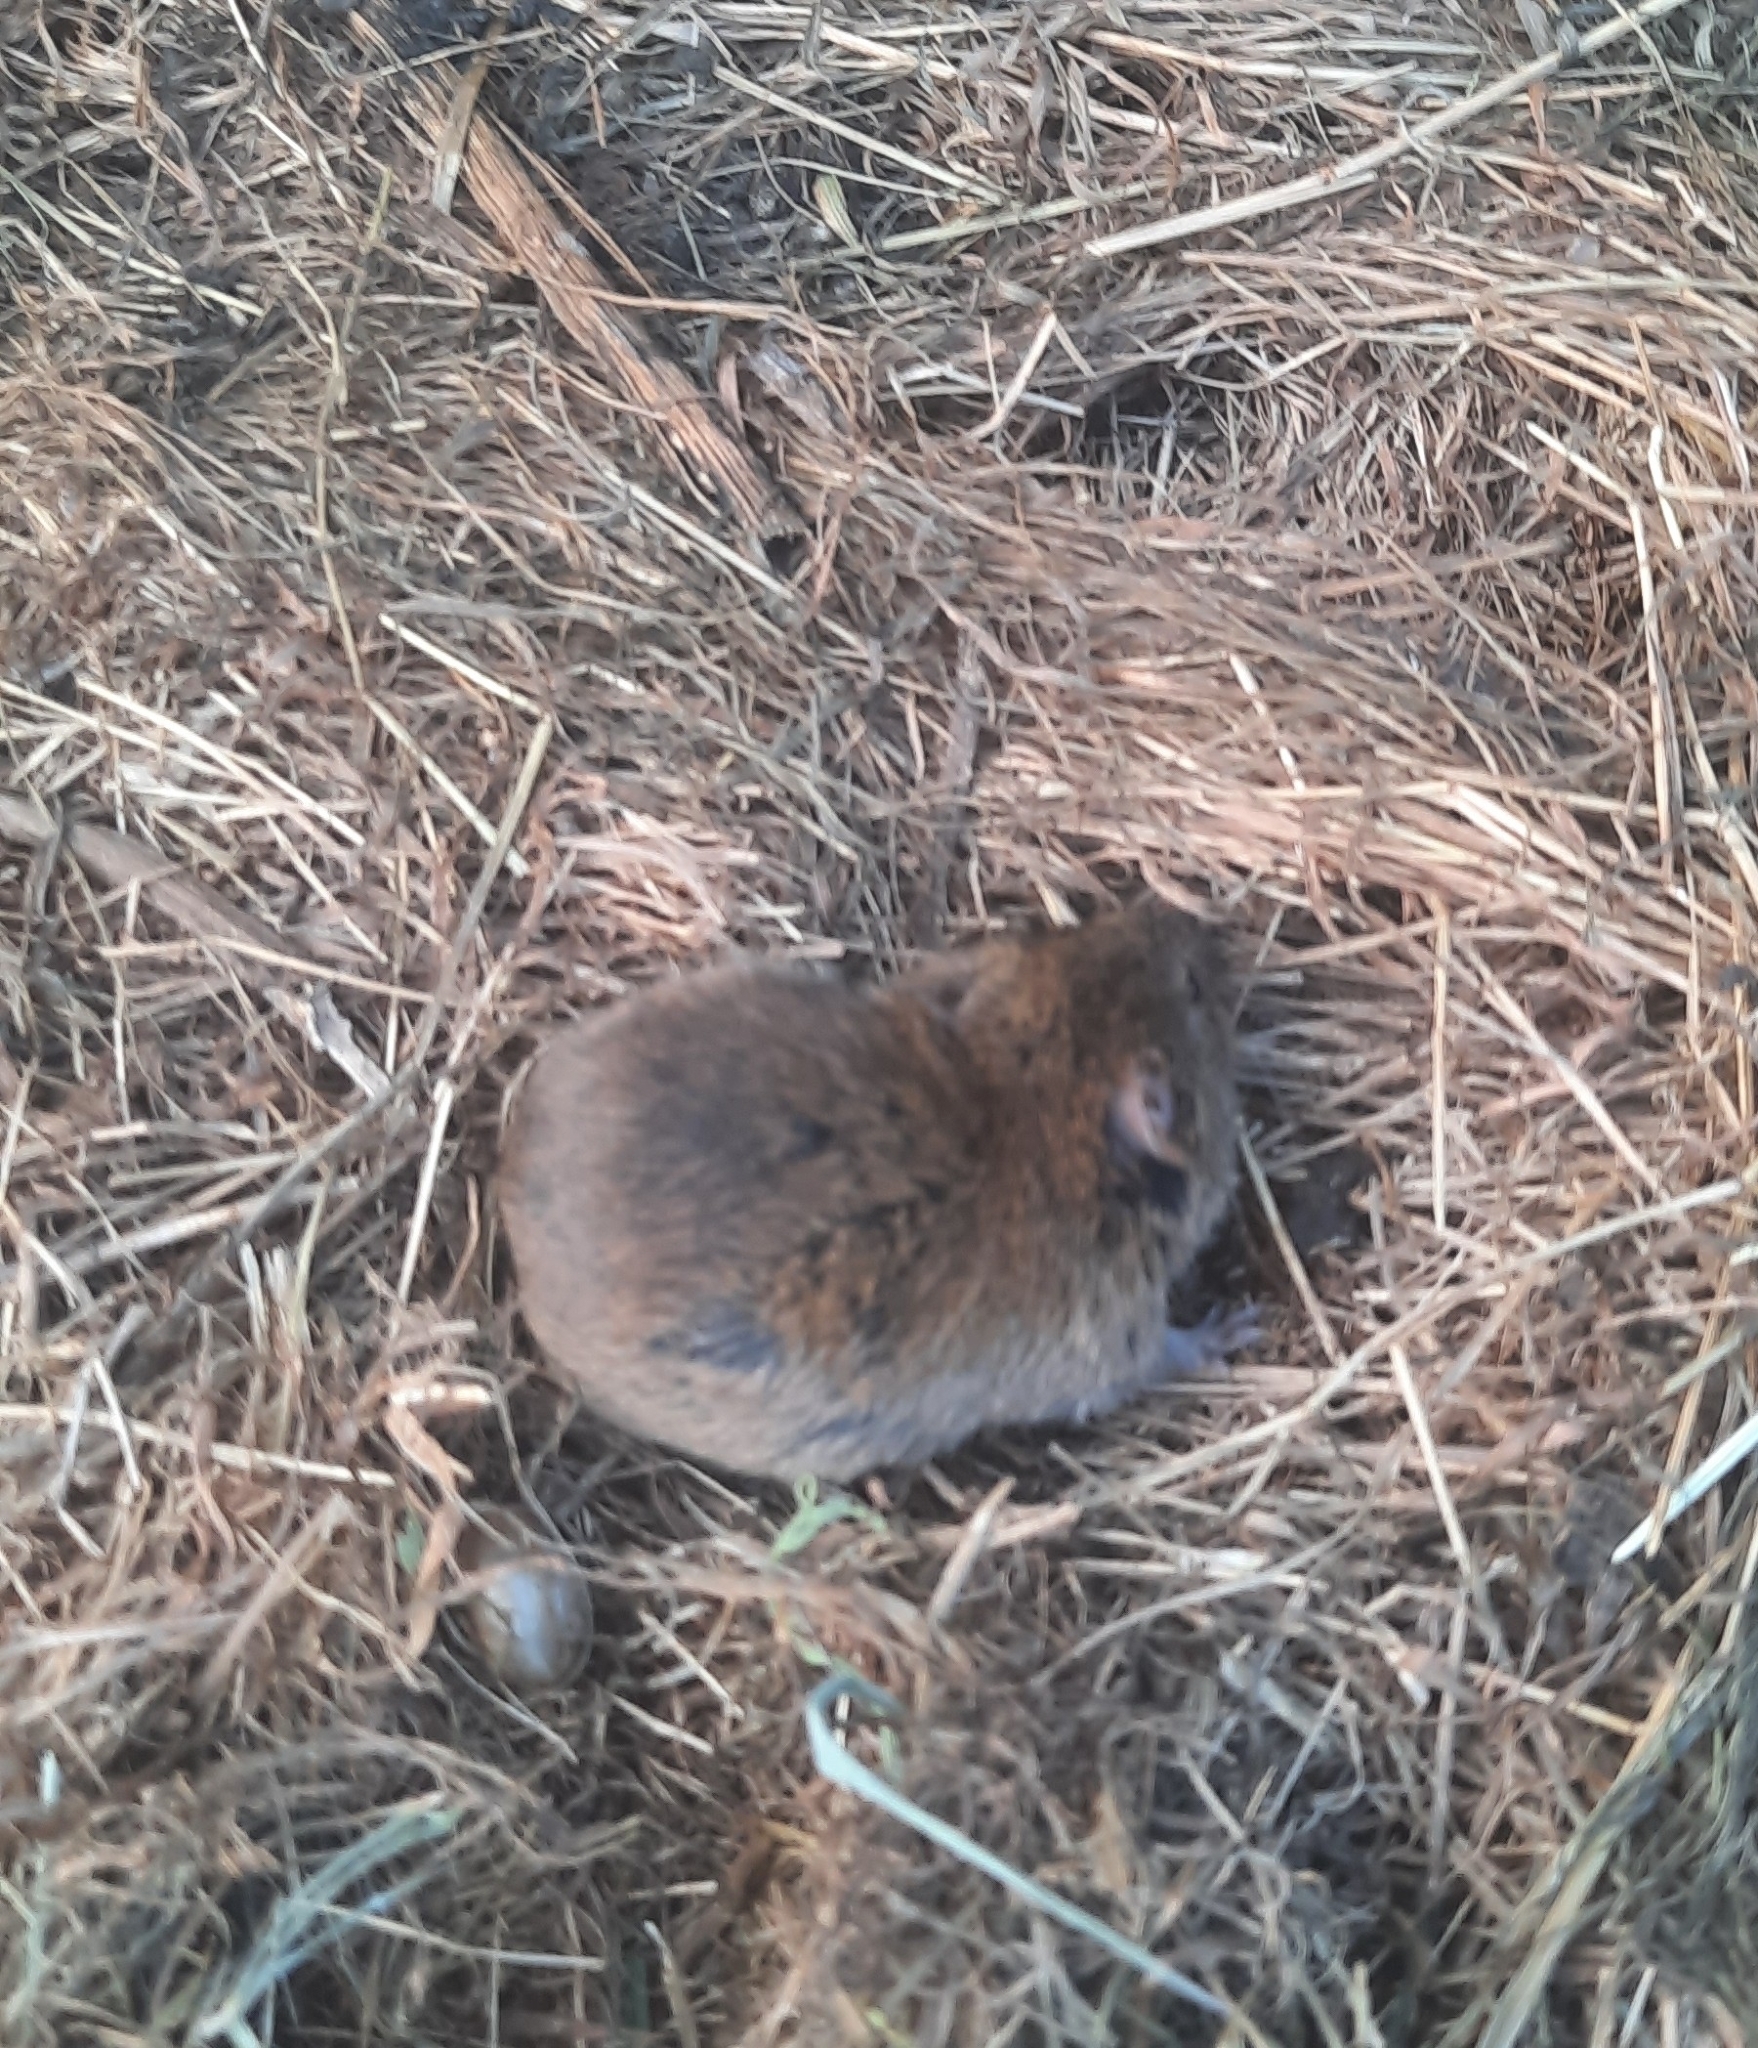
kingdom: Animalia
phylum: Chordata
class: Mammalia
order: Rodentia
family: Cricetidae
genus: Microtus
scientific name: Microtus agrestis
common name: Field vole
